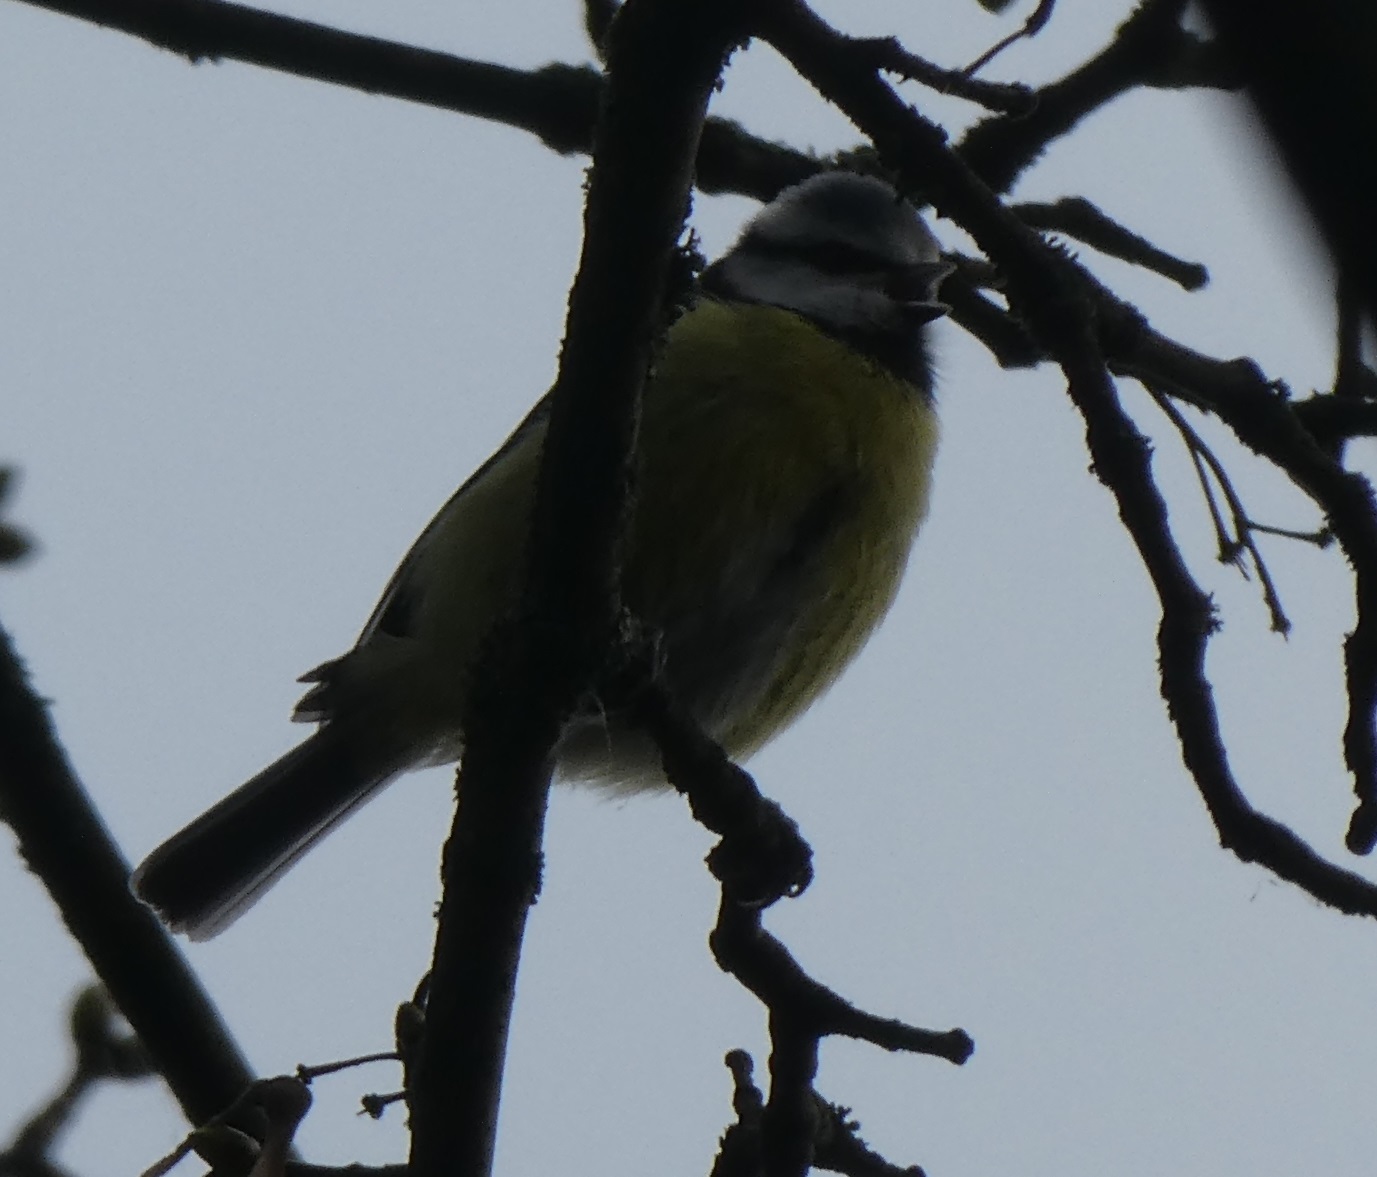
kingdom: Animalia
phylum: Chordata
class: Aves
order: Passeriformes
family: Paridae
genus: Cyanistes
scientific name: Cyanistes caeruleus
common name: Eurasian blue tit
